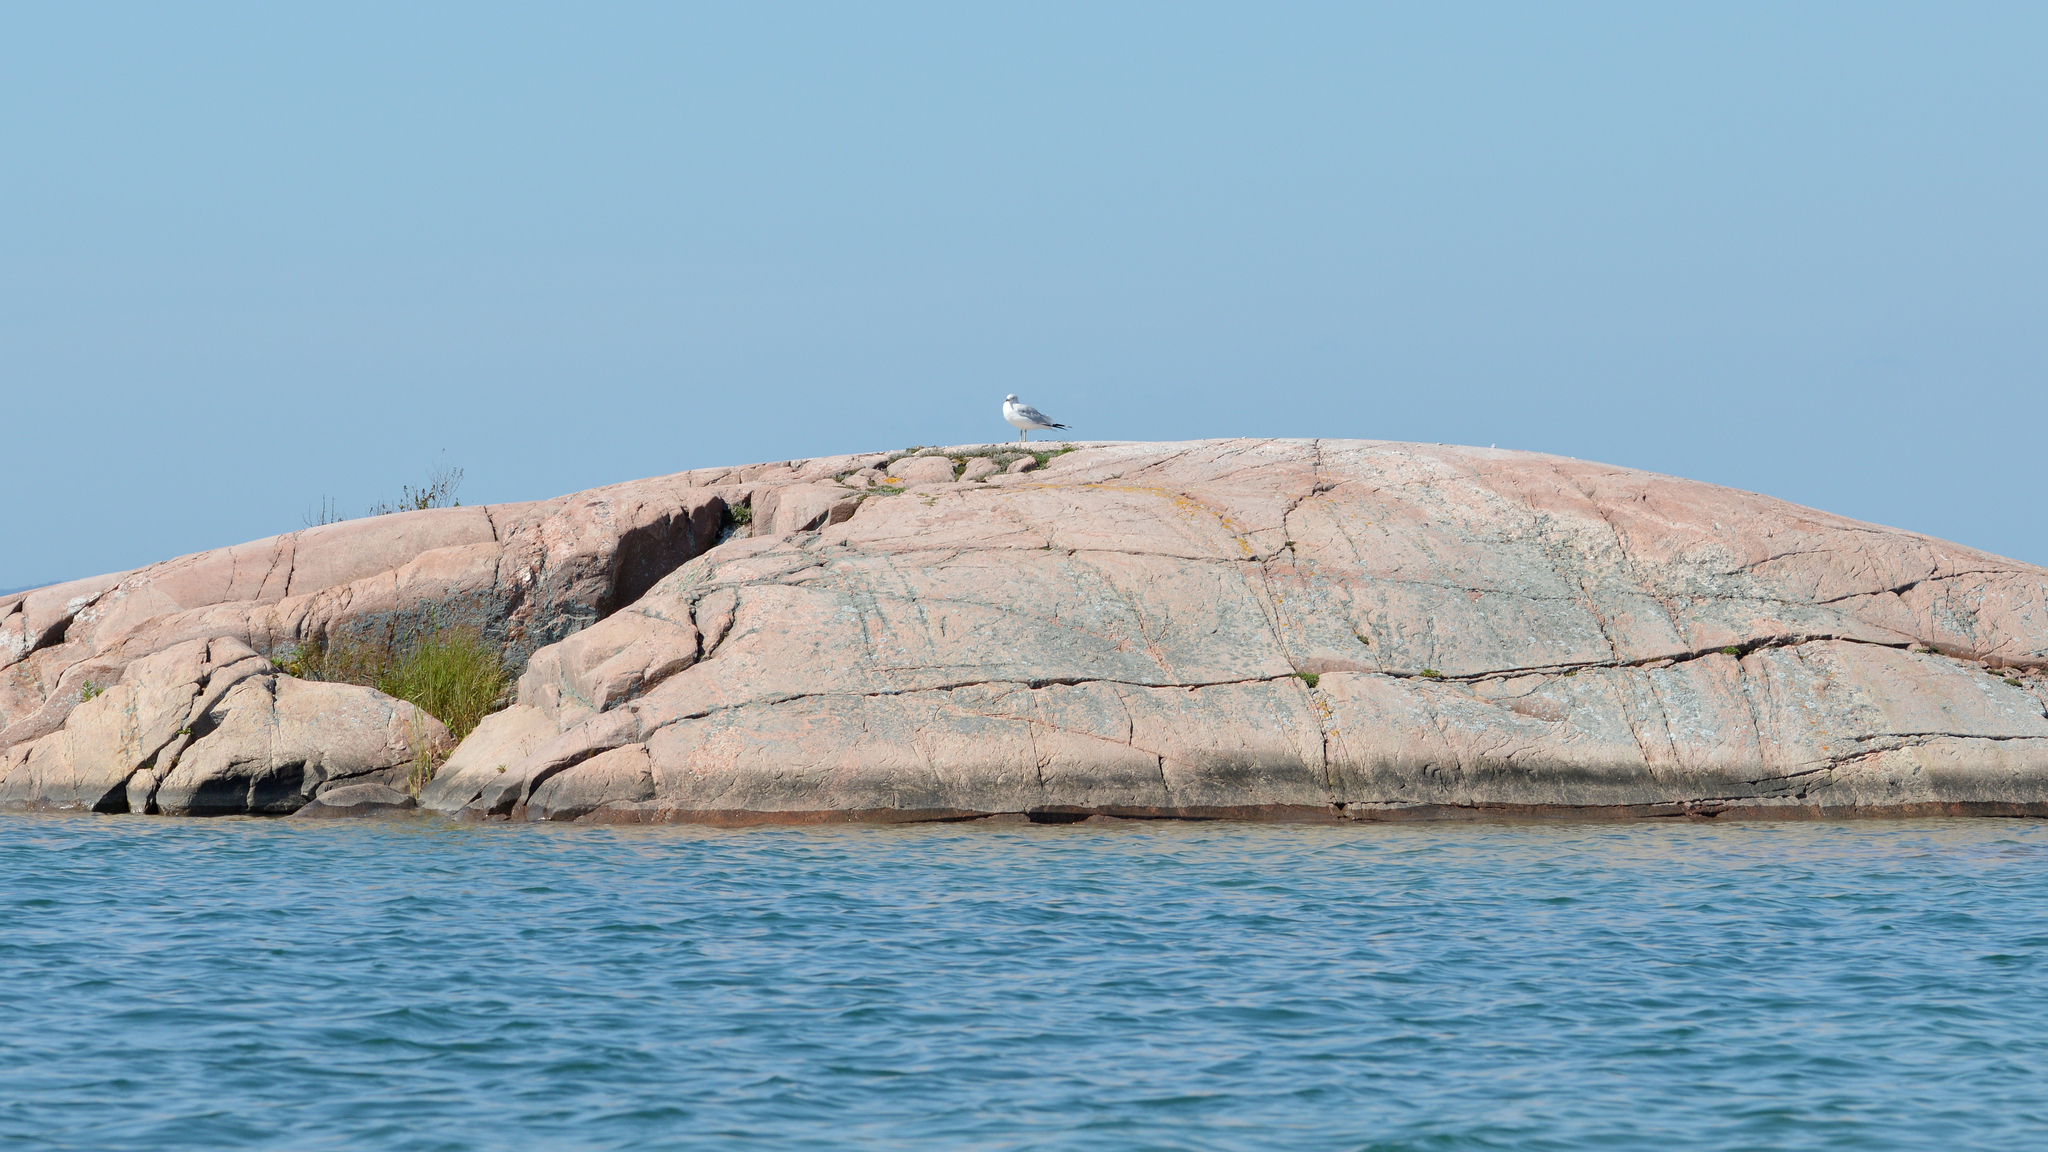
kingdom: Animalia
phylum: Chordata
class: Aves
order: Charadriiformes
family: Laridae
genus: Larus
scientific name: Larus delawarensis
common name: Ring-billed gull
